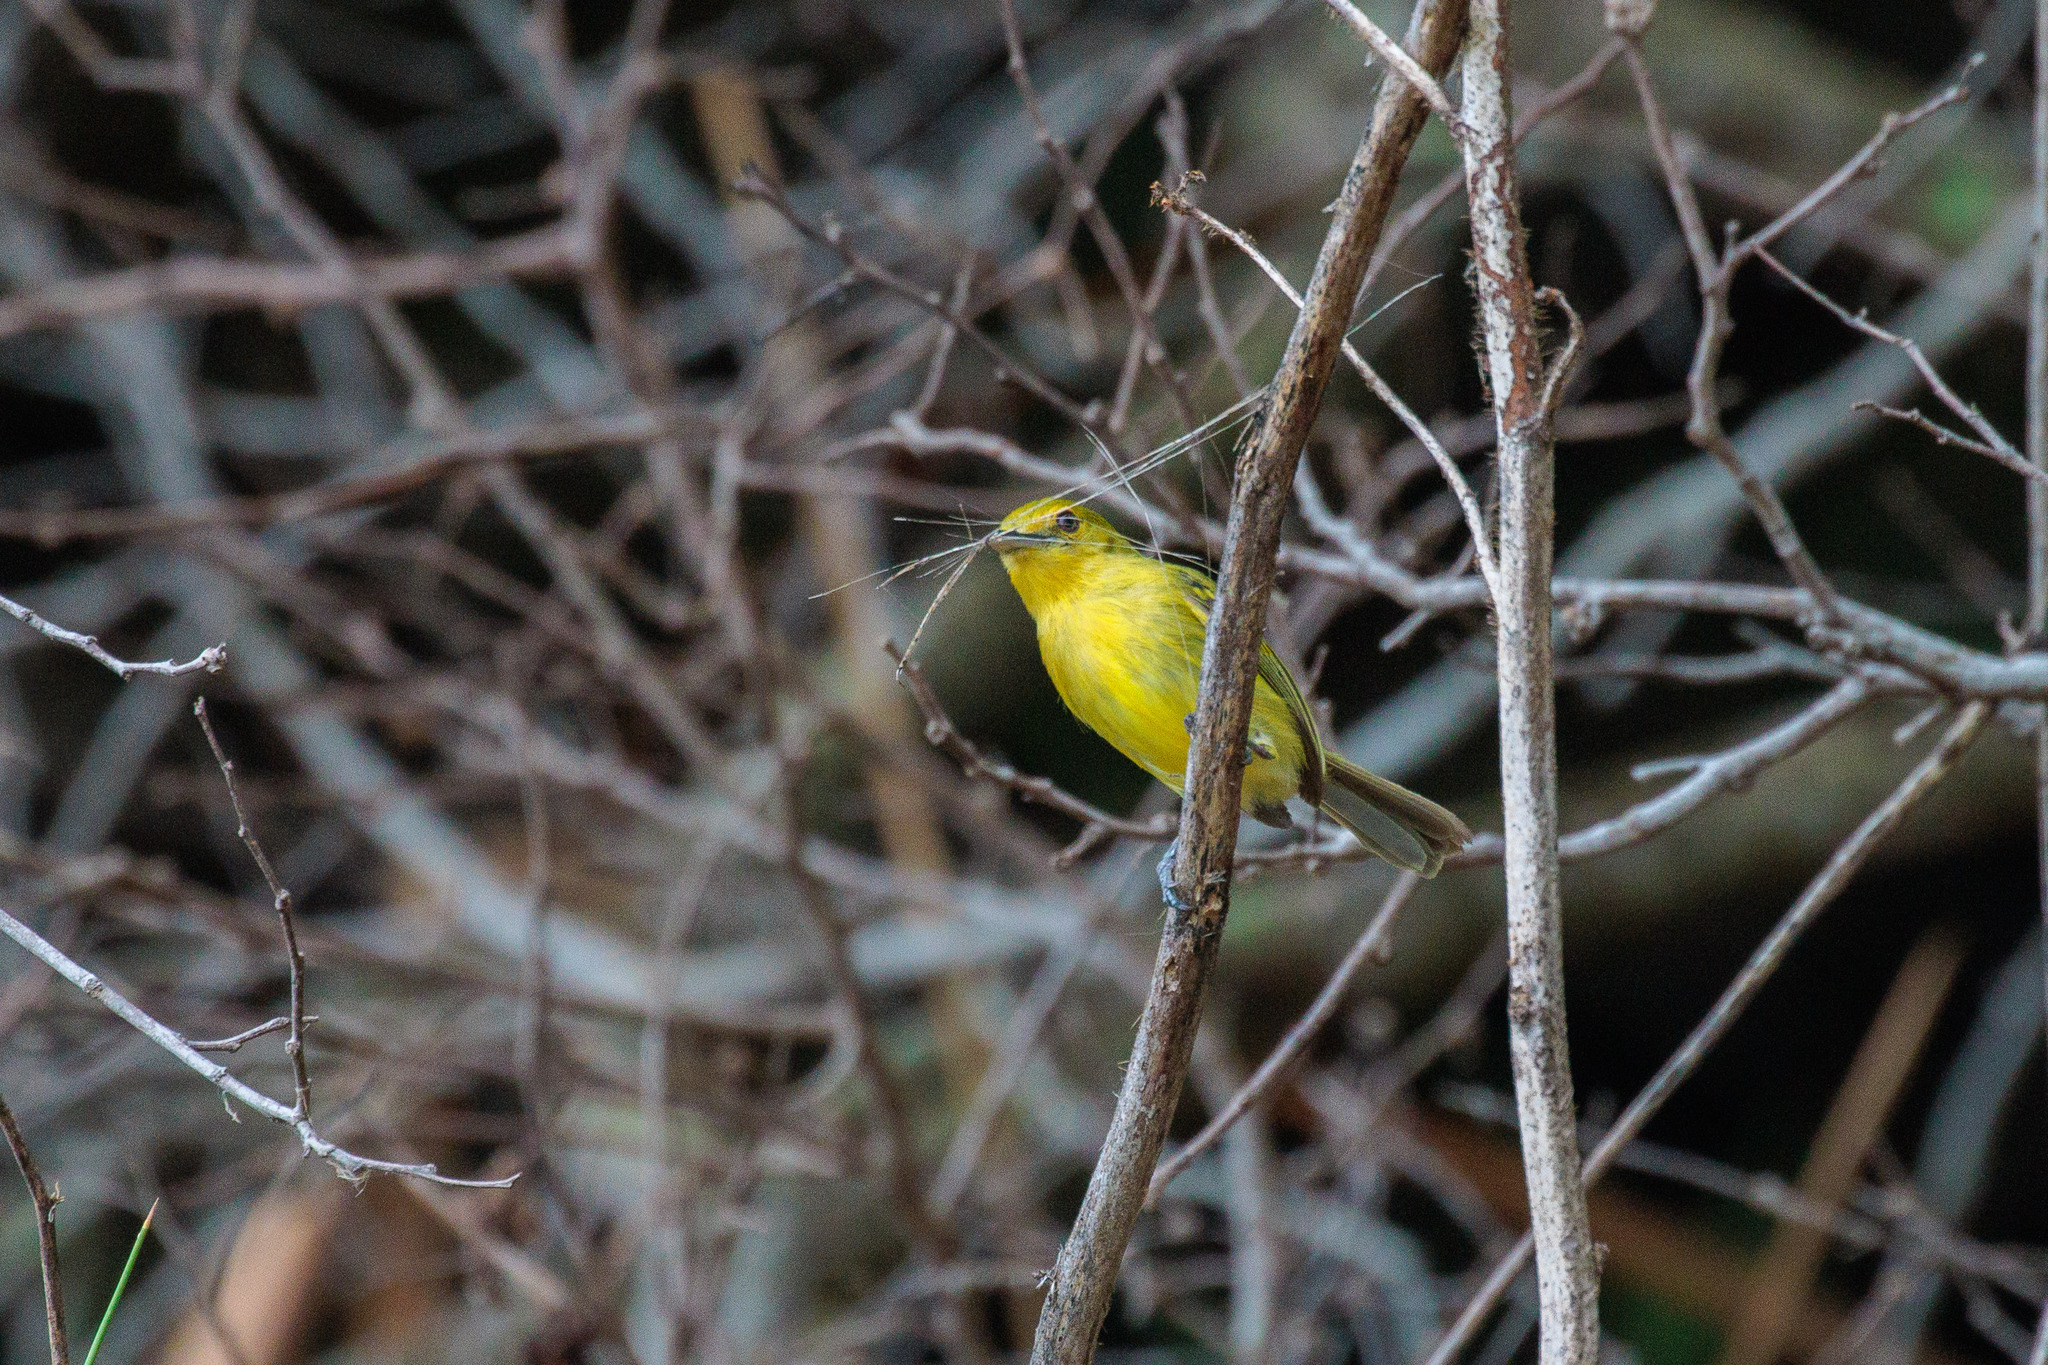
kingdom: Animalia
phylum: Chordata
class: Aves
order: Passeriformes
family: Tyrannidae
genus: Tolmomyias
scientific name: Tolmomyias flaviventris
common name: Ochre-lored flatbill
